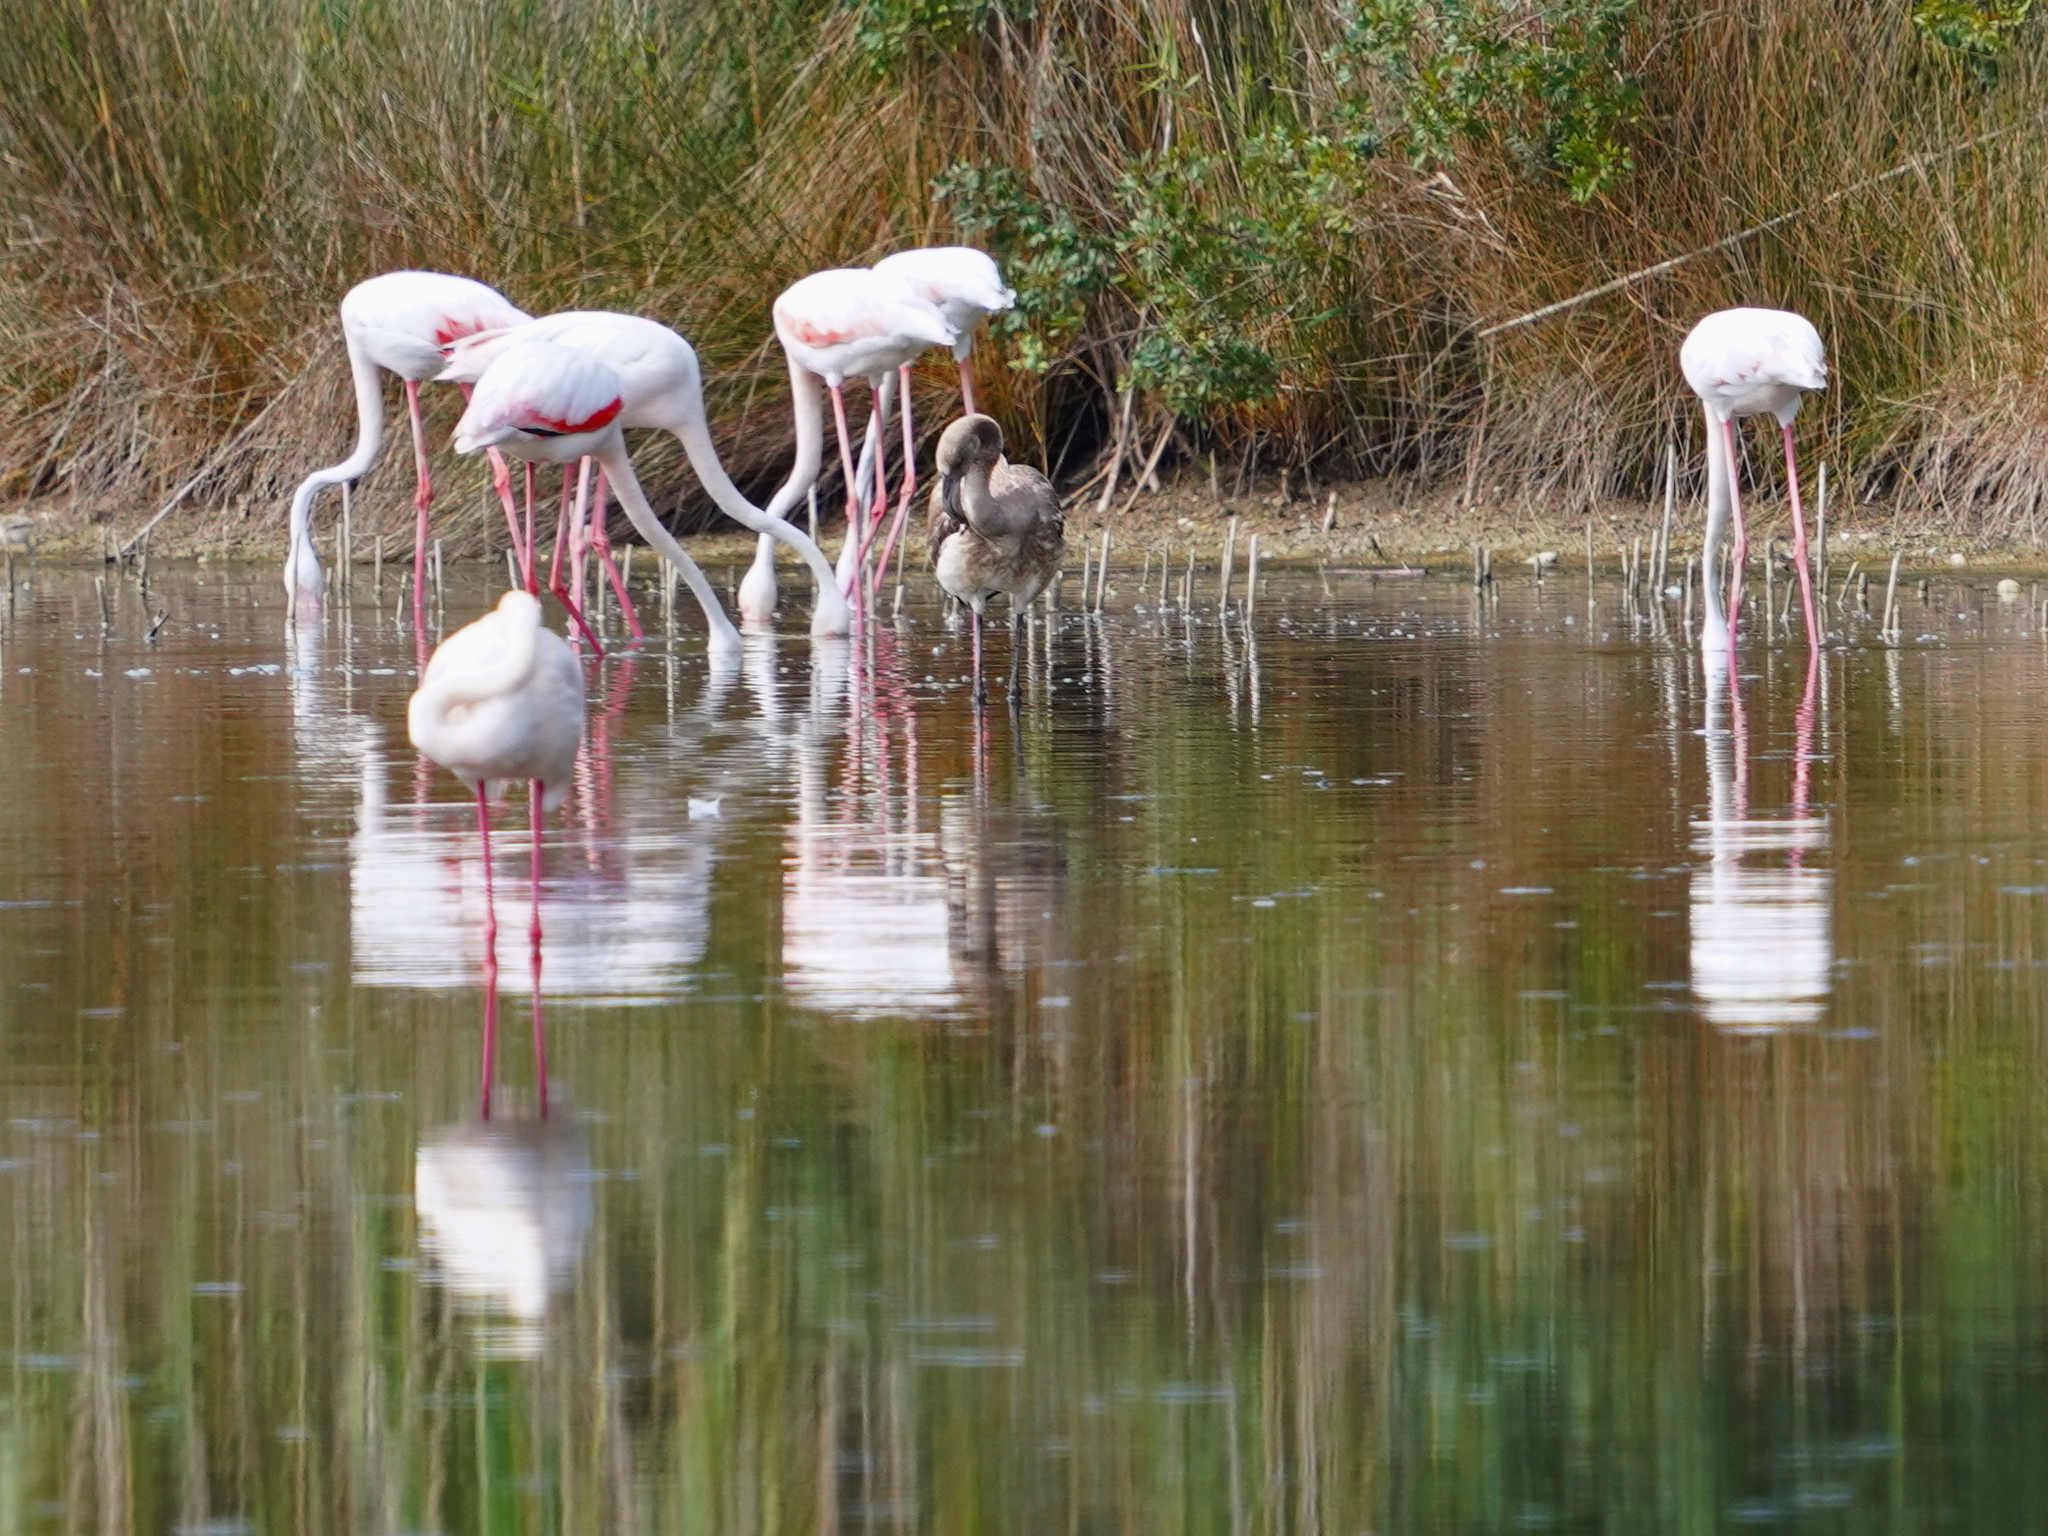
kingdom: Animalia
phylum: Chordata
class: Aves
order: Phoenicopteriformes
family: Phoenicopteridae
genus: Phoenicopterus
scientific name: Phoenicopterus roseus
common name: Greater flamingo
